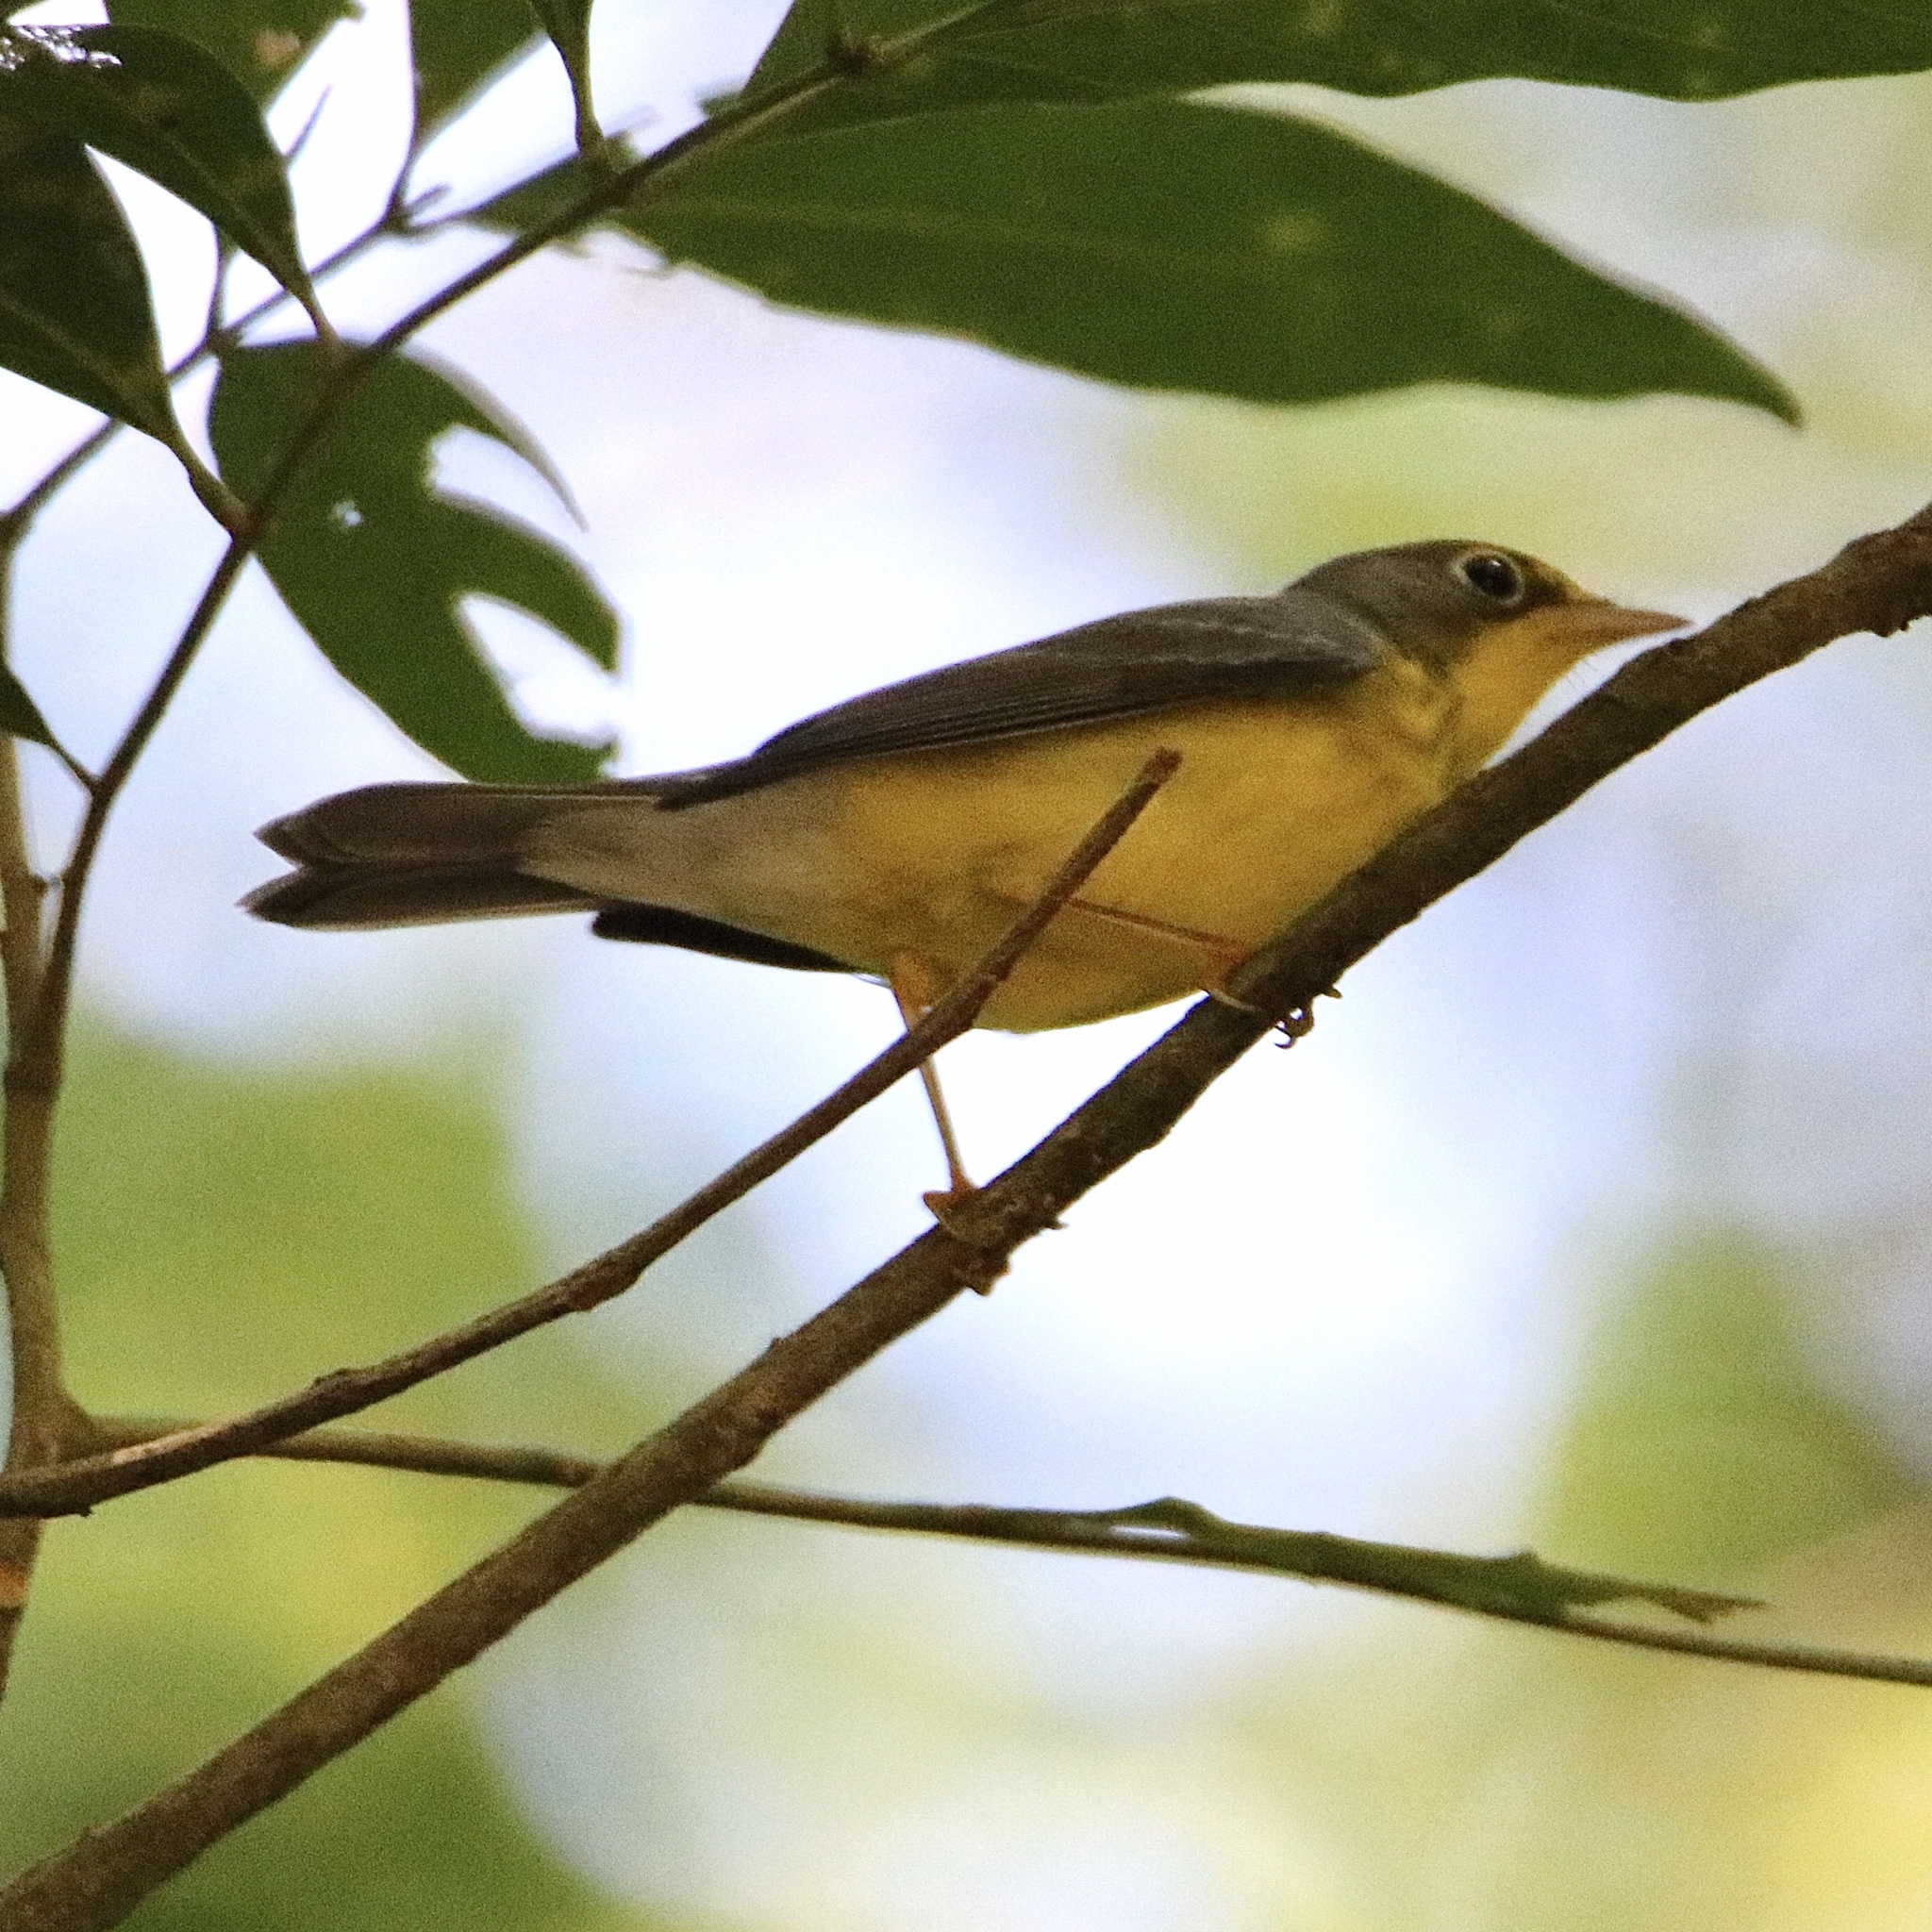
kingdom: Animalia
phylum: Chordata
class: Aves
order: Passeriformes
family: Parulidae
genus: Cardellina
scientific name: Cardellina canadensis
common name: Canada warbler
